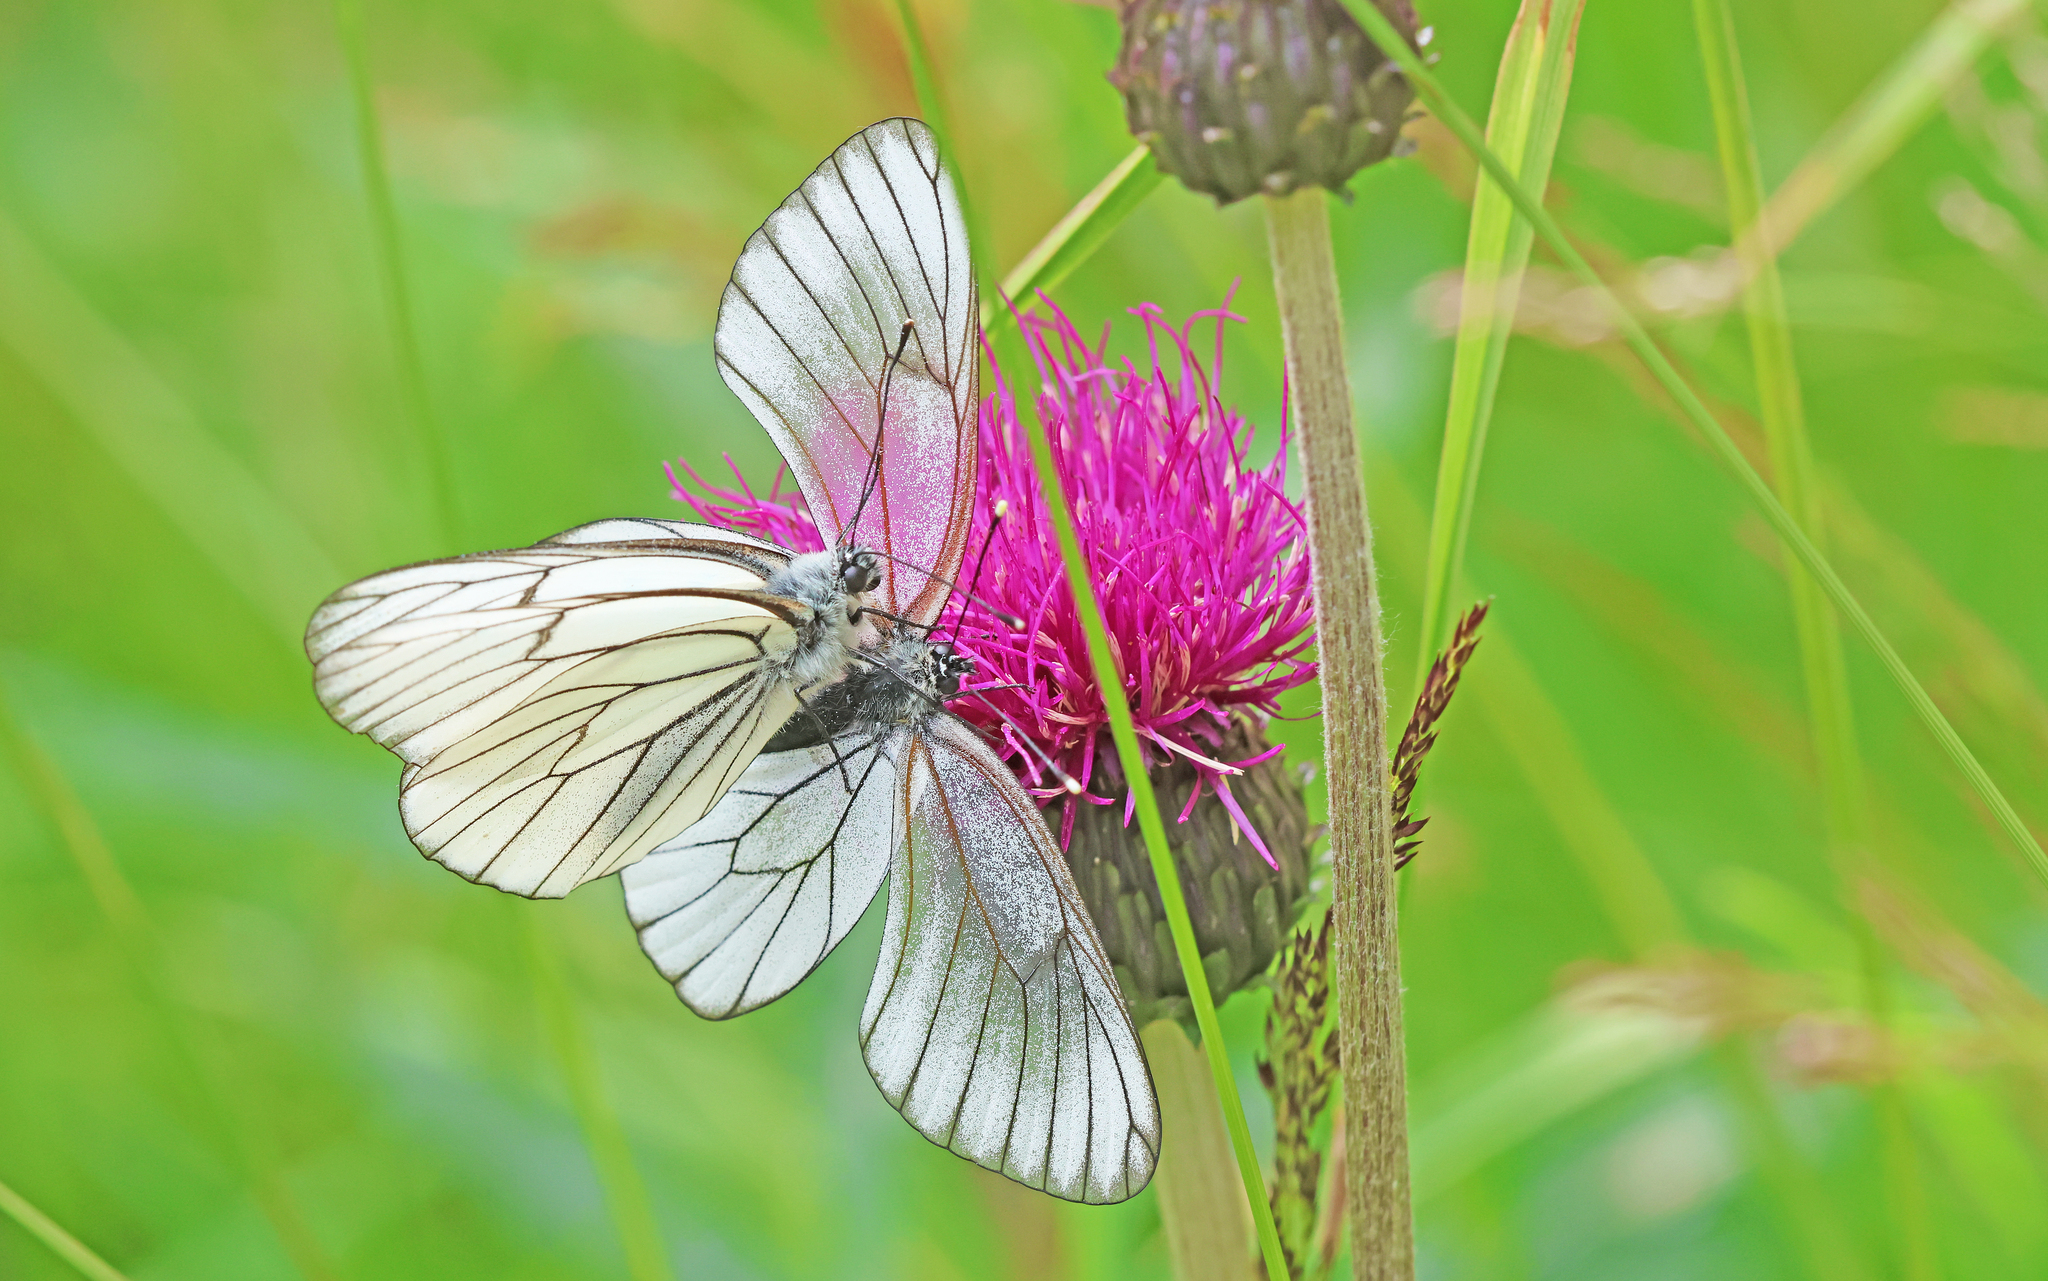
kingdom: Animalia
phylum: Arthropoda
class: Insecta
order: Lepidoptera
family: Pieridae
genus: Aporia
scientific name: Aporia crataegi
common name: Black-veined white
